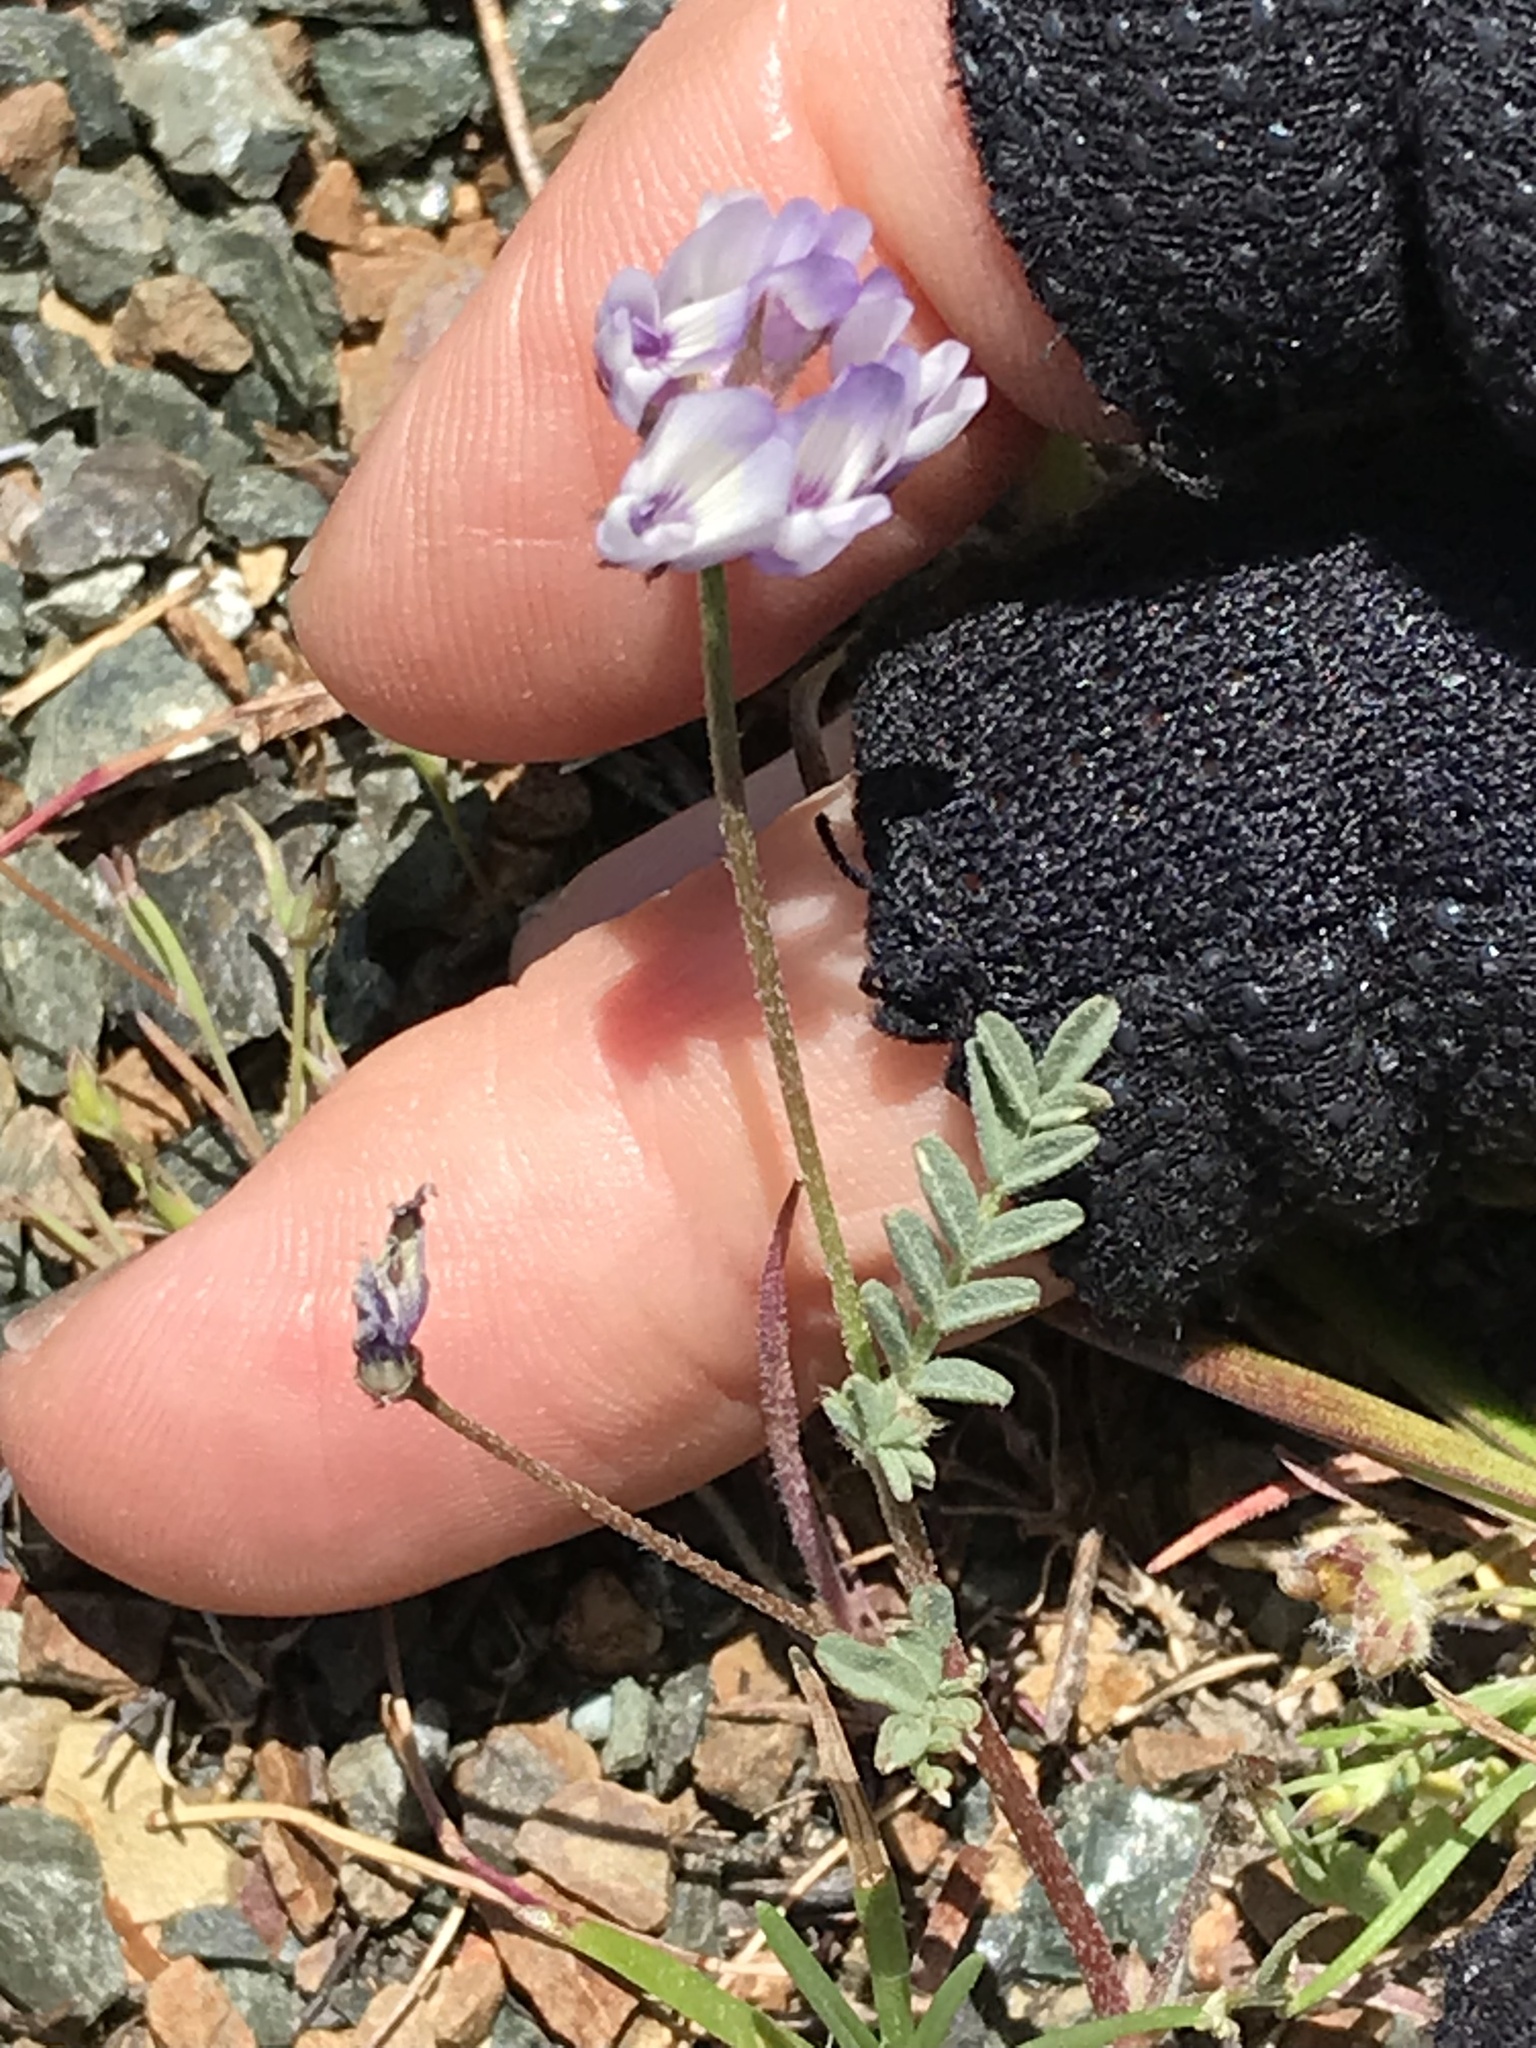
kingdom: Plantae
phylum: Tracheophyta
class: Magnoliopsida
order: Fabales
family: Fabaceae
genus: Astragalus
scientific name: Astragalus gambelianus
